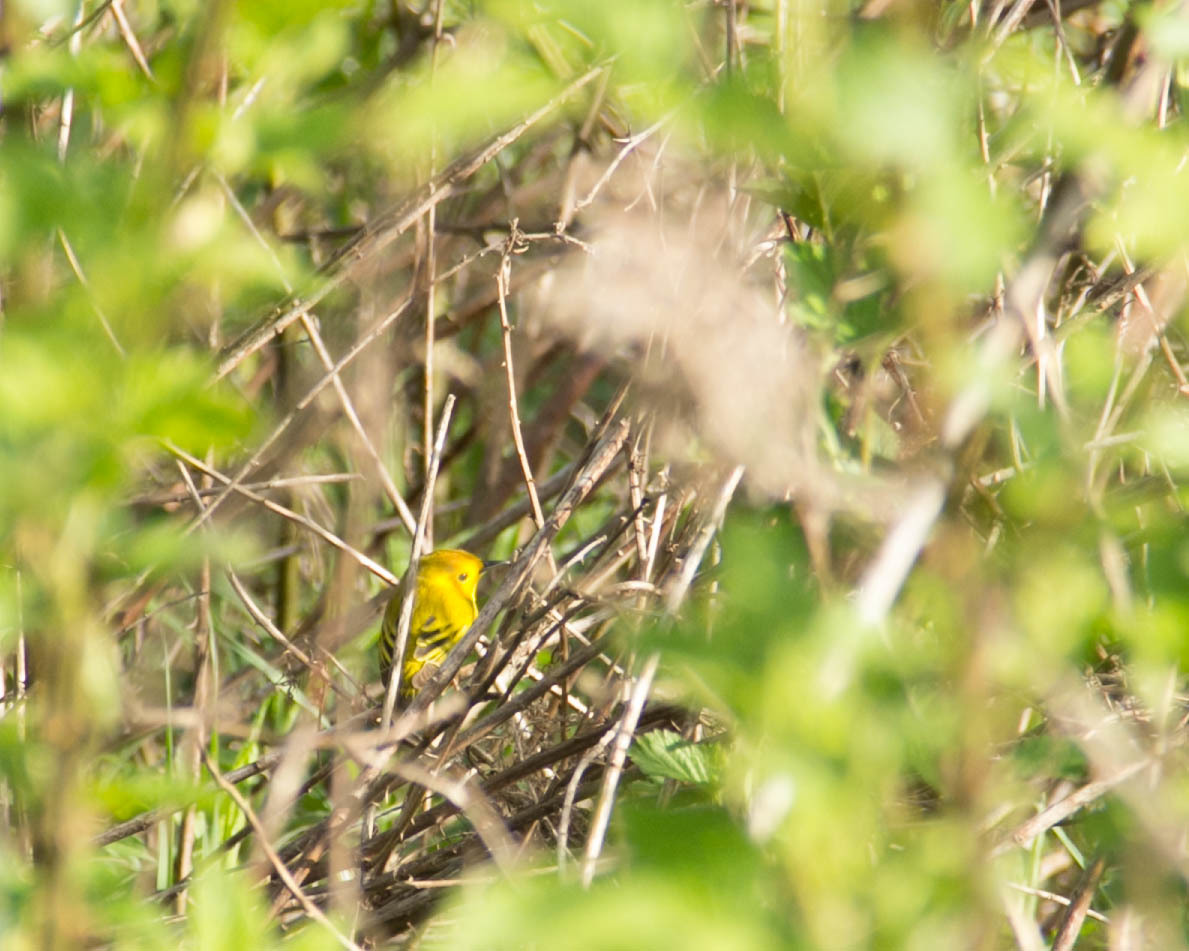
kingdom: Animalia
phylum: Chordata
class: Aves
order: Passeriformes
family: Parulidae
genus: Setophaga
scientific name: Setophaga petechia
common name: Yellow warbler
